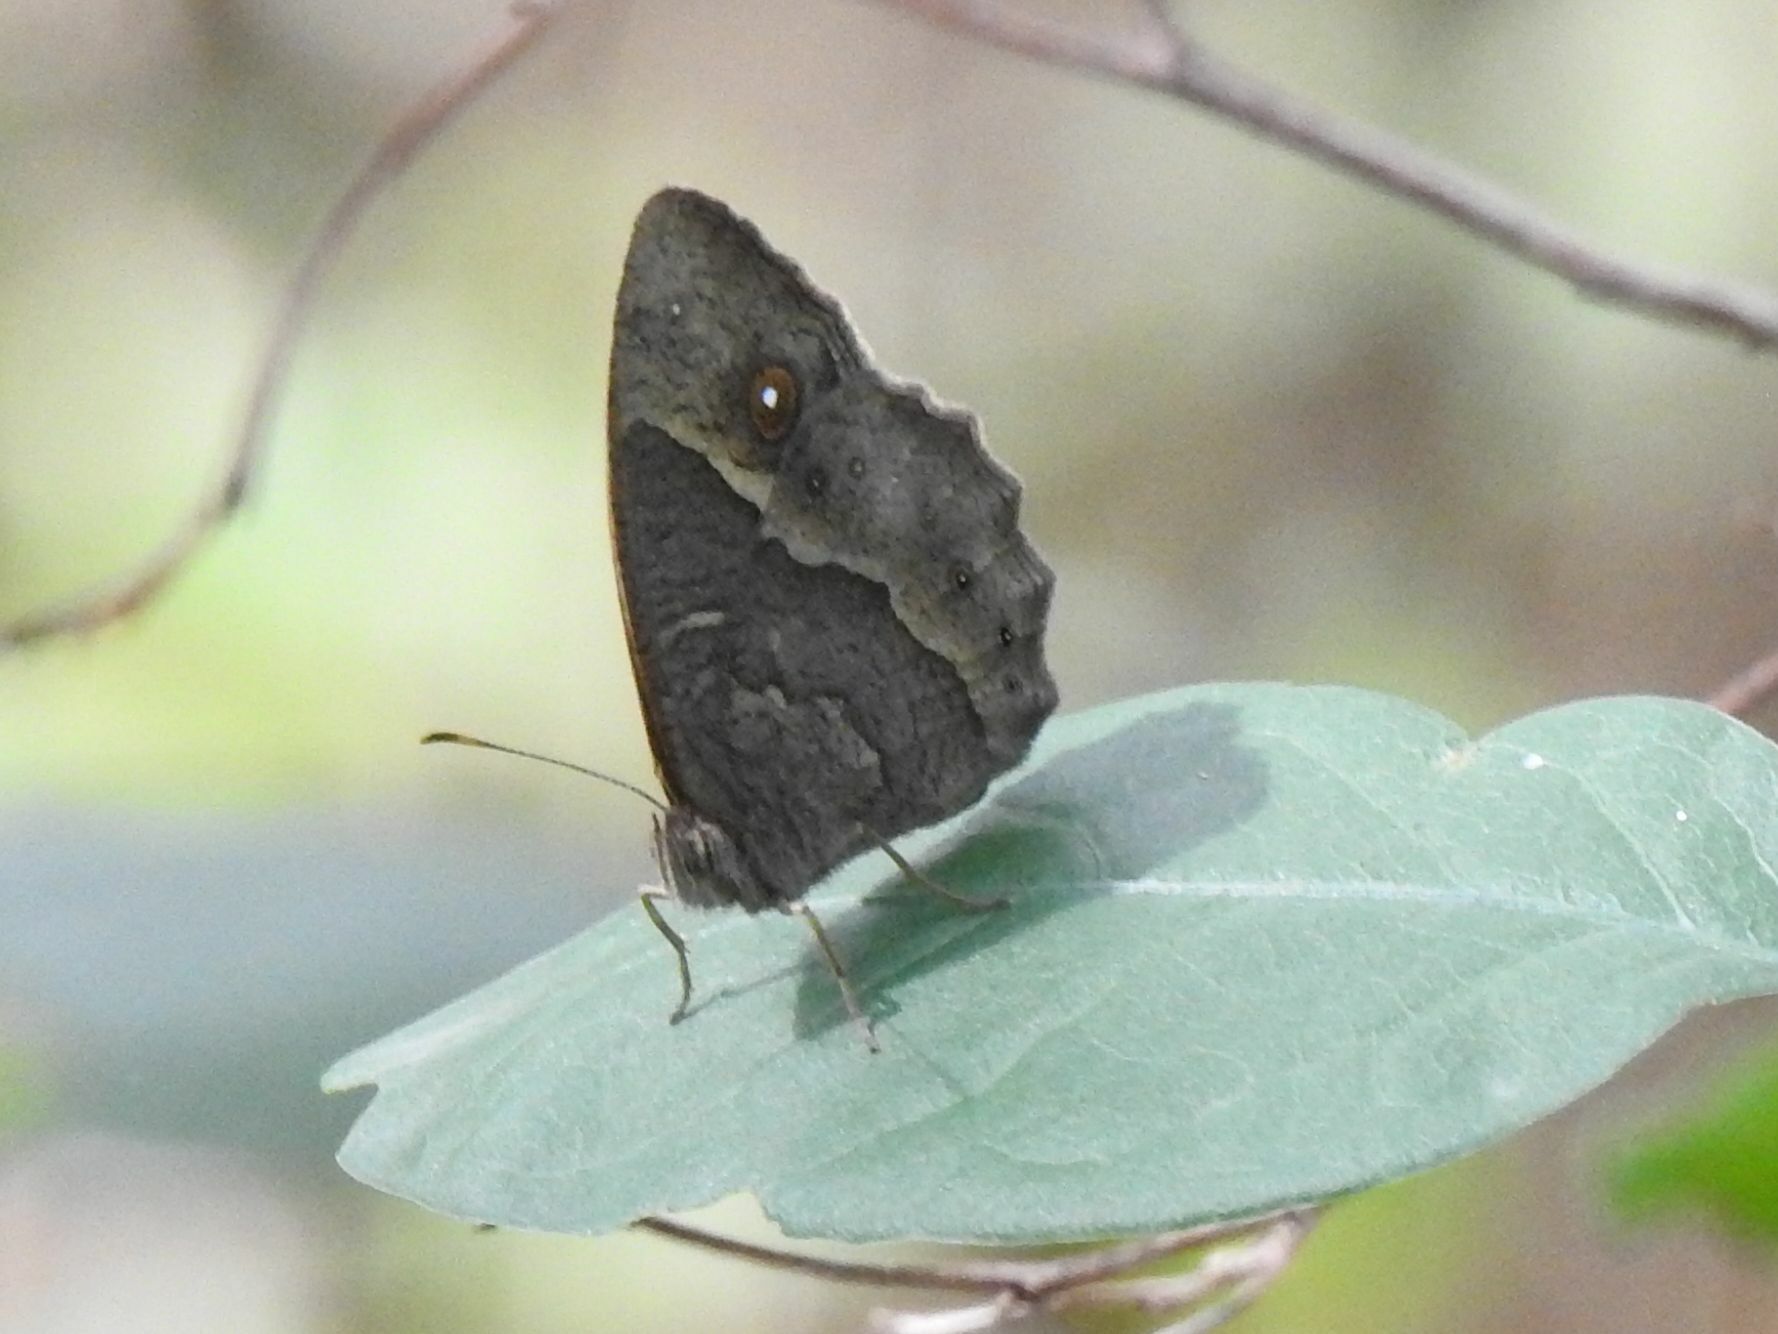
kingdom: Animalia
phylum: Arthropoda
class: Insecta
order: Lepidoptera
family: Nymphalidae
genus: Mycalesis
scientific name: Mycalesis anynana
